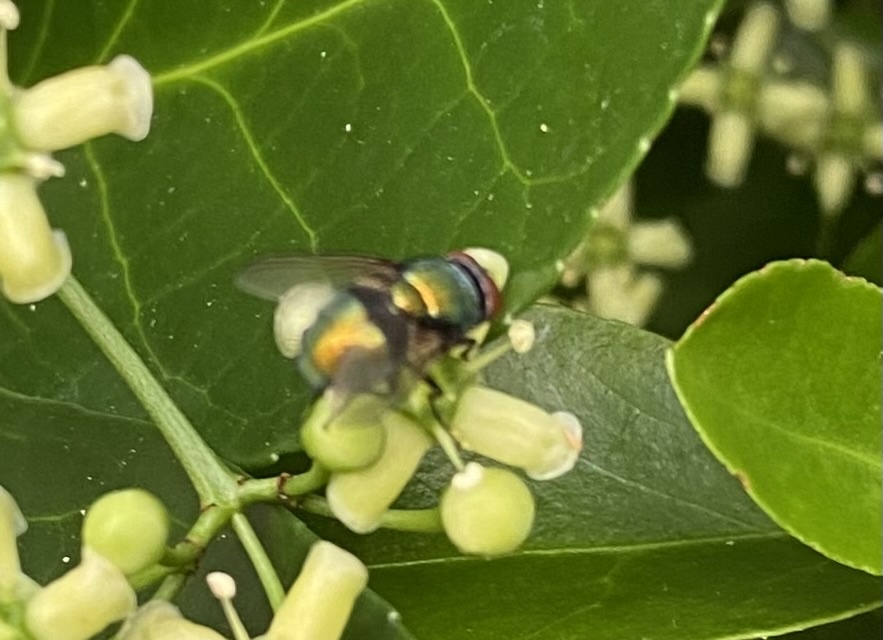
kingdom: Animalia
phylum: Arthropoda
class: Insecta
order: Diptera
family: Calliphoridae
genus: Lucilia
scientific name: Lucilia
